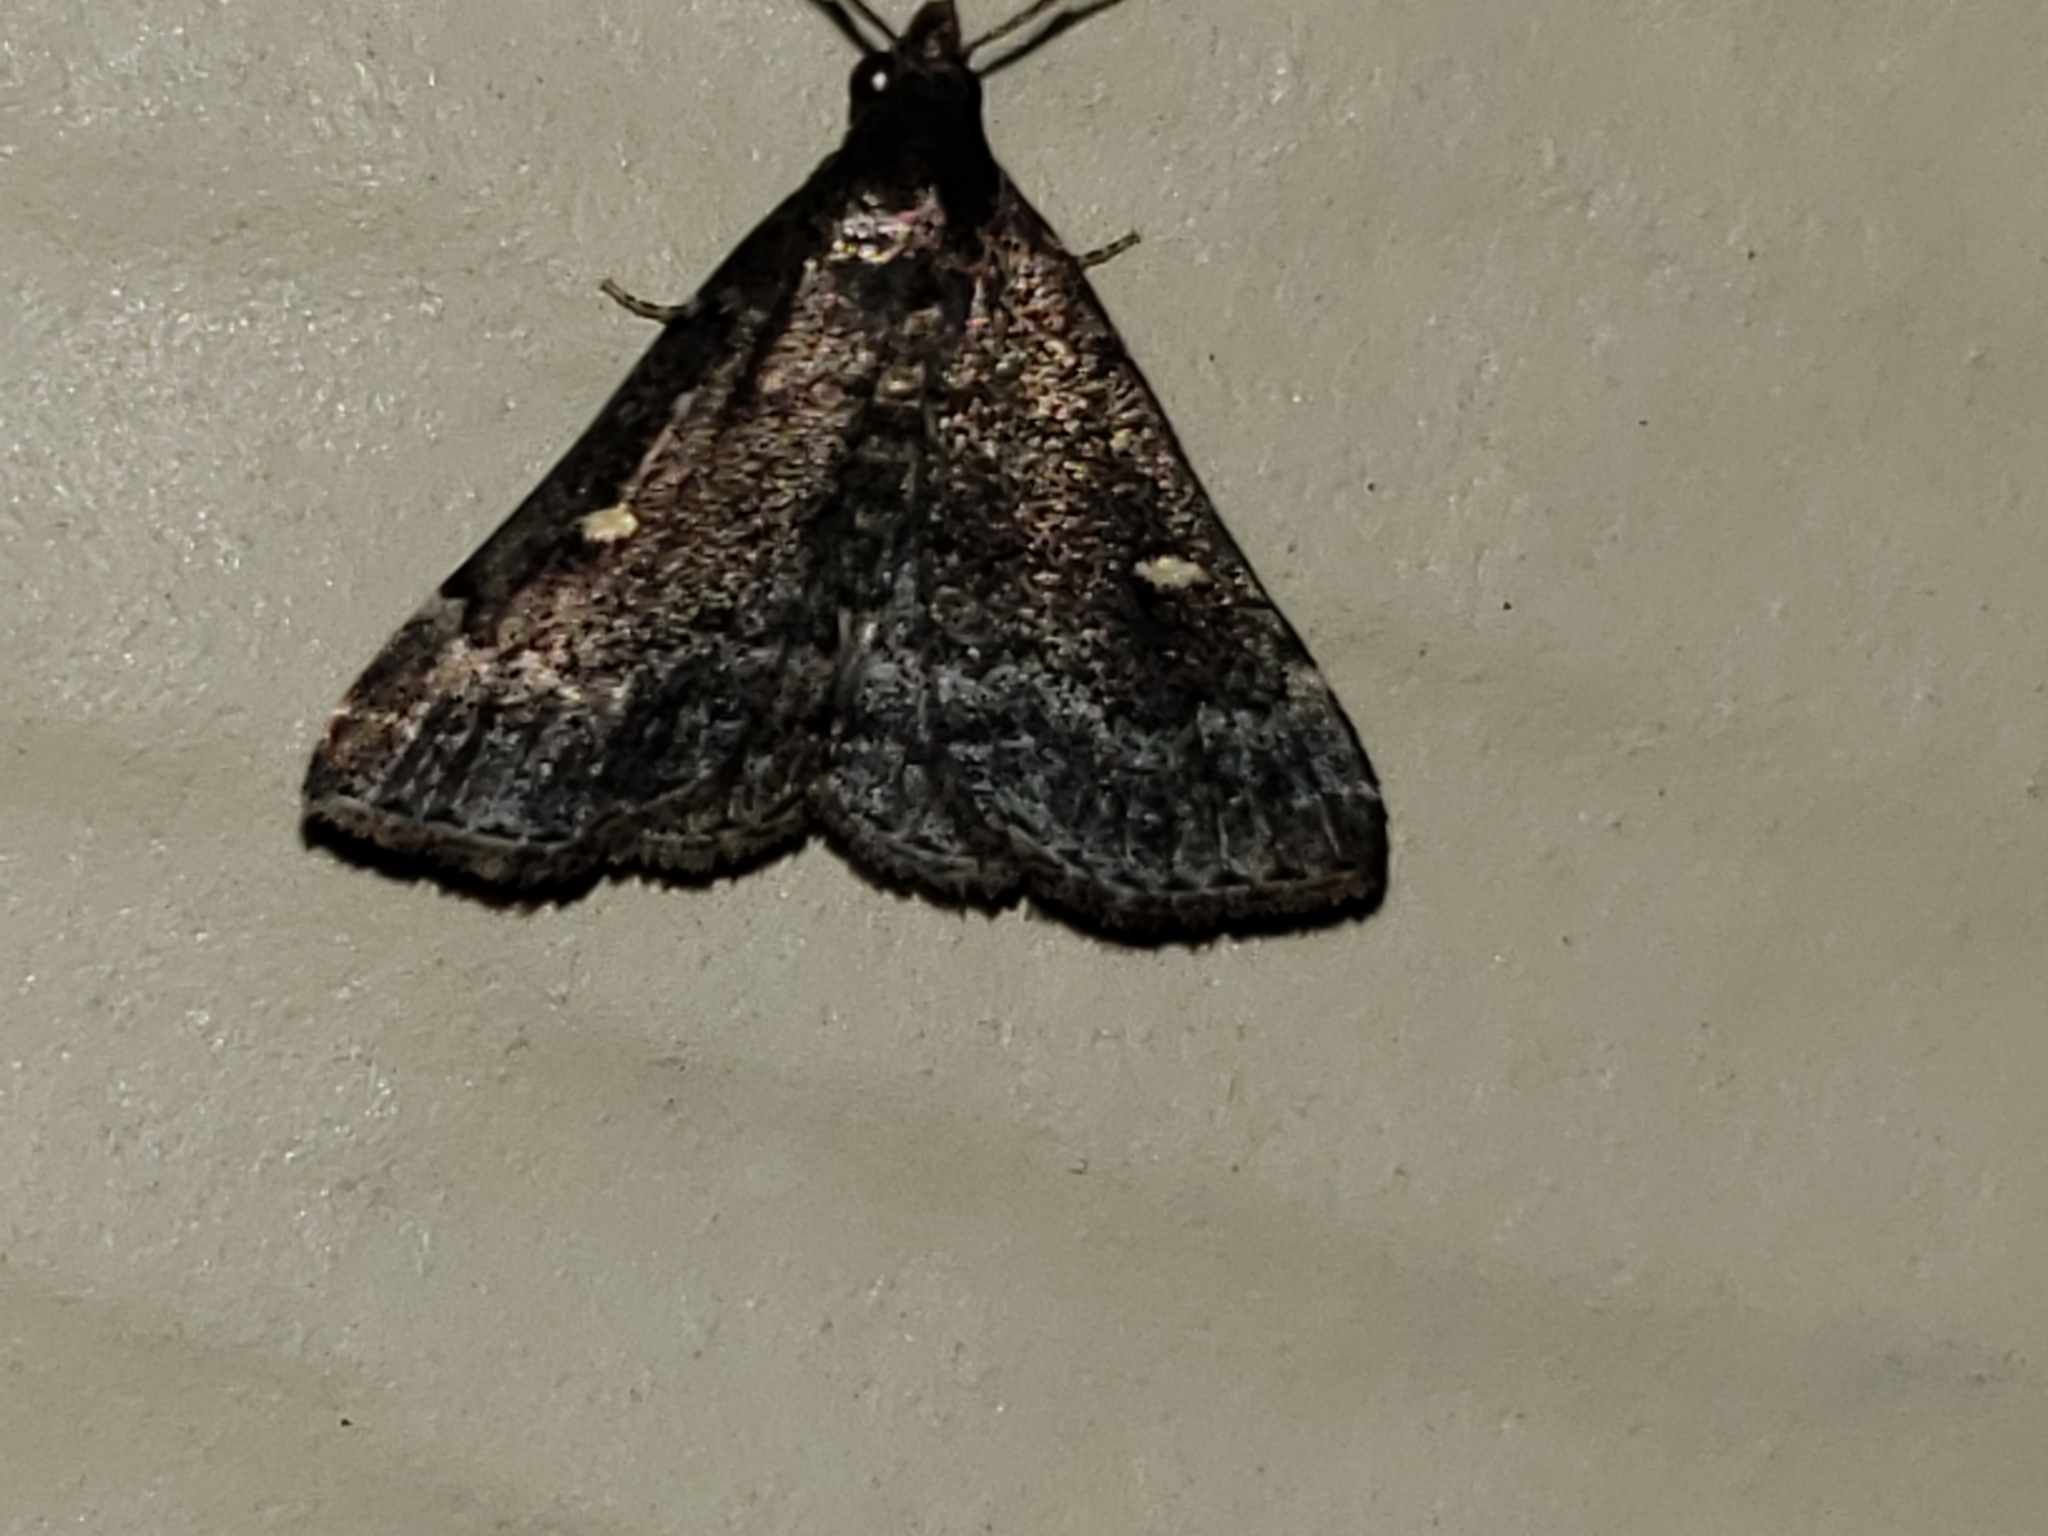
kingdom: Animalia
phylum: Arthropoda
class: Insecta
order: Lepidoptera
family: Erebidae
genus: Tetanolita
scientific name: Tetanolita mynesalis
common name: Smoky tetanolita moth
